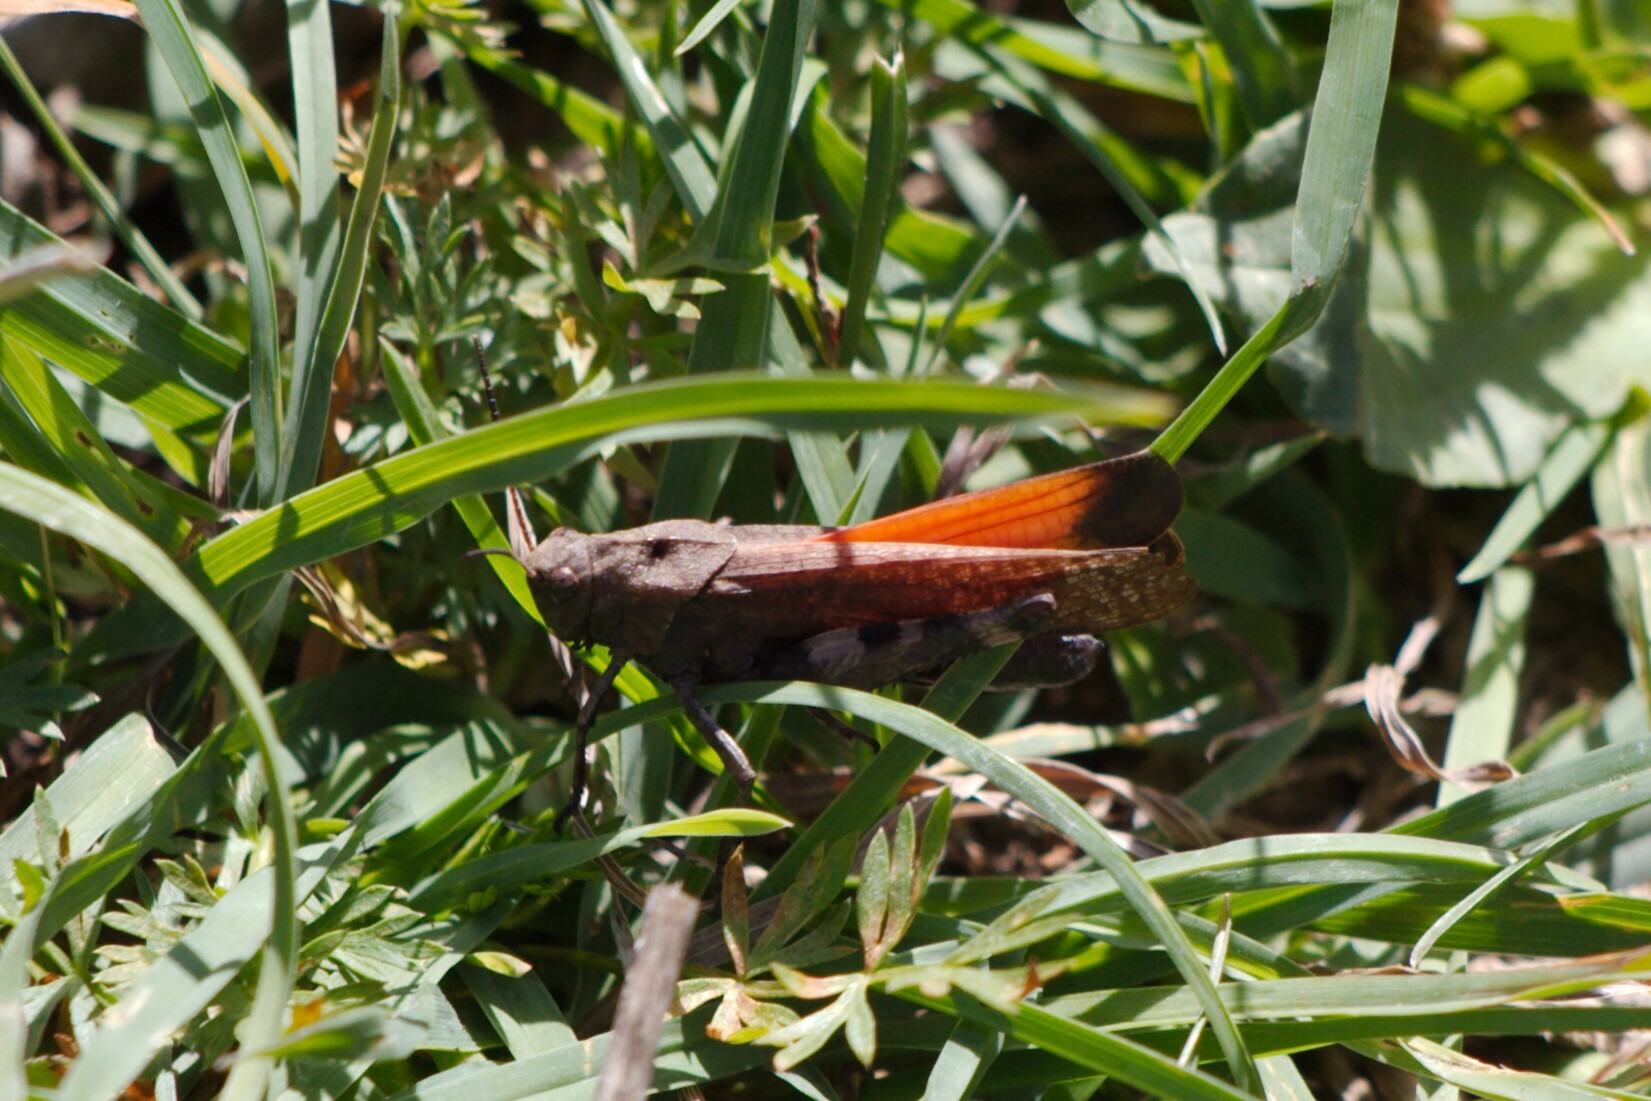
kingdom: Animalia
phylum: Arthropoda
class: Insecta
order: Orthoptera
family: Acrididae
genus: Psophus
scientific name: Psophus stridulus
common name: Rattle grasshopper
